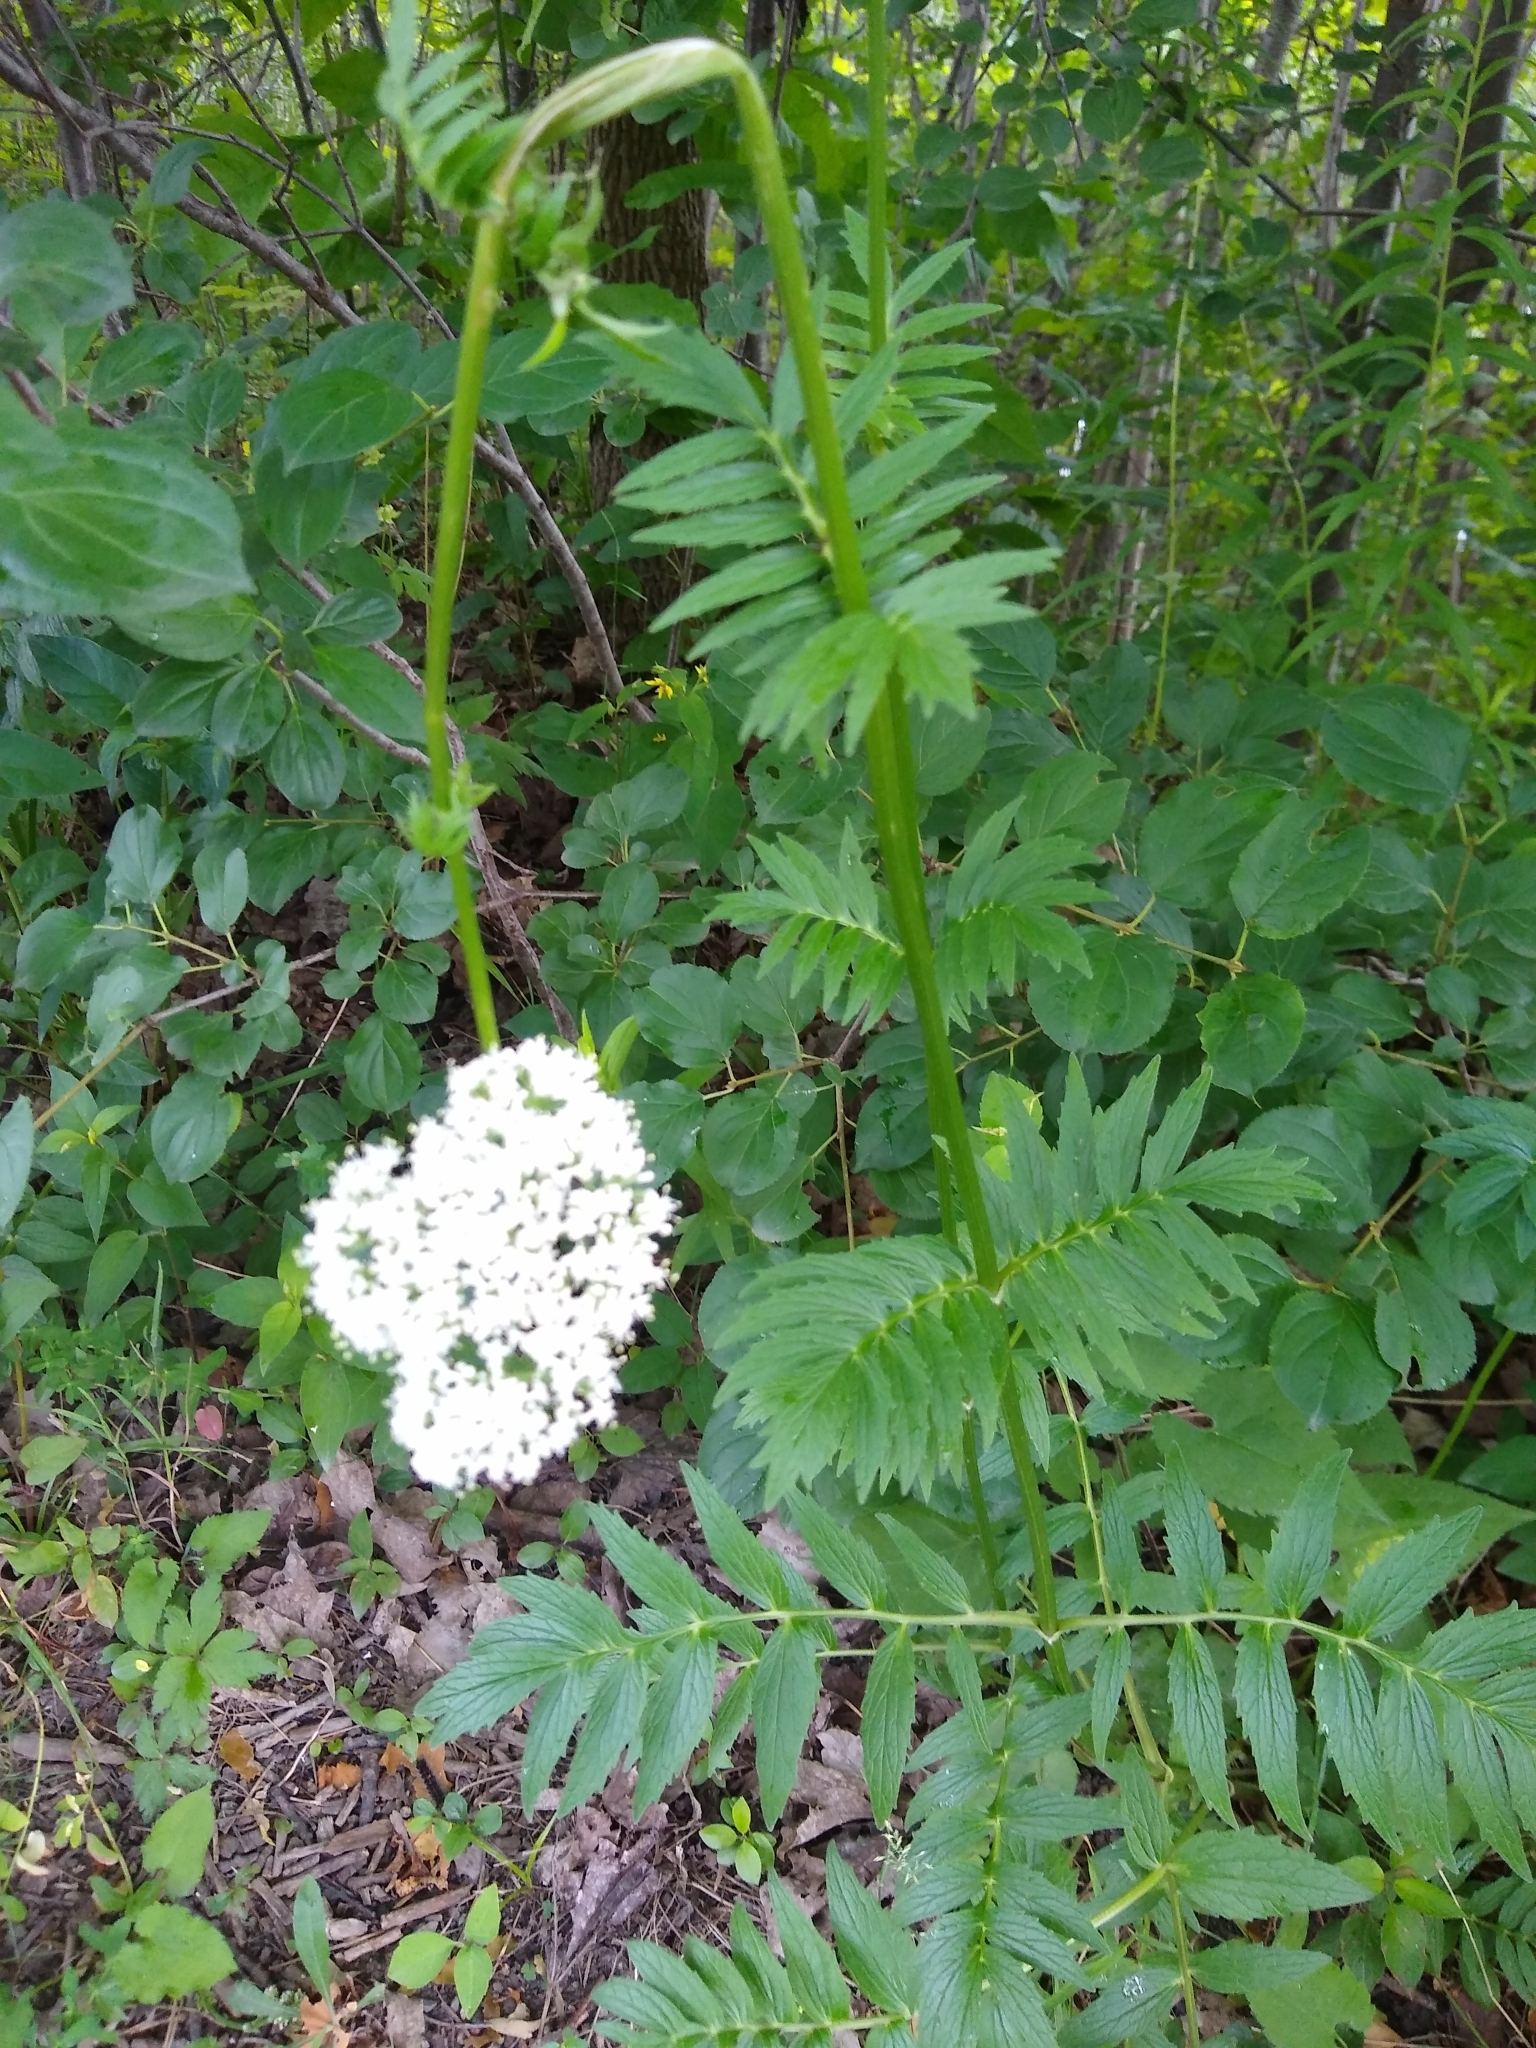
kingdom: Plantae
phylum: Tracheophyta
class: Magnoliopsida
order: Dipsacales
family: Caprifoliaceae
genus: Valeriana
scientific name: Valeriana officinalis
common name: Common valerian
